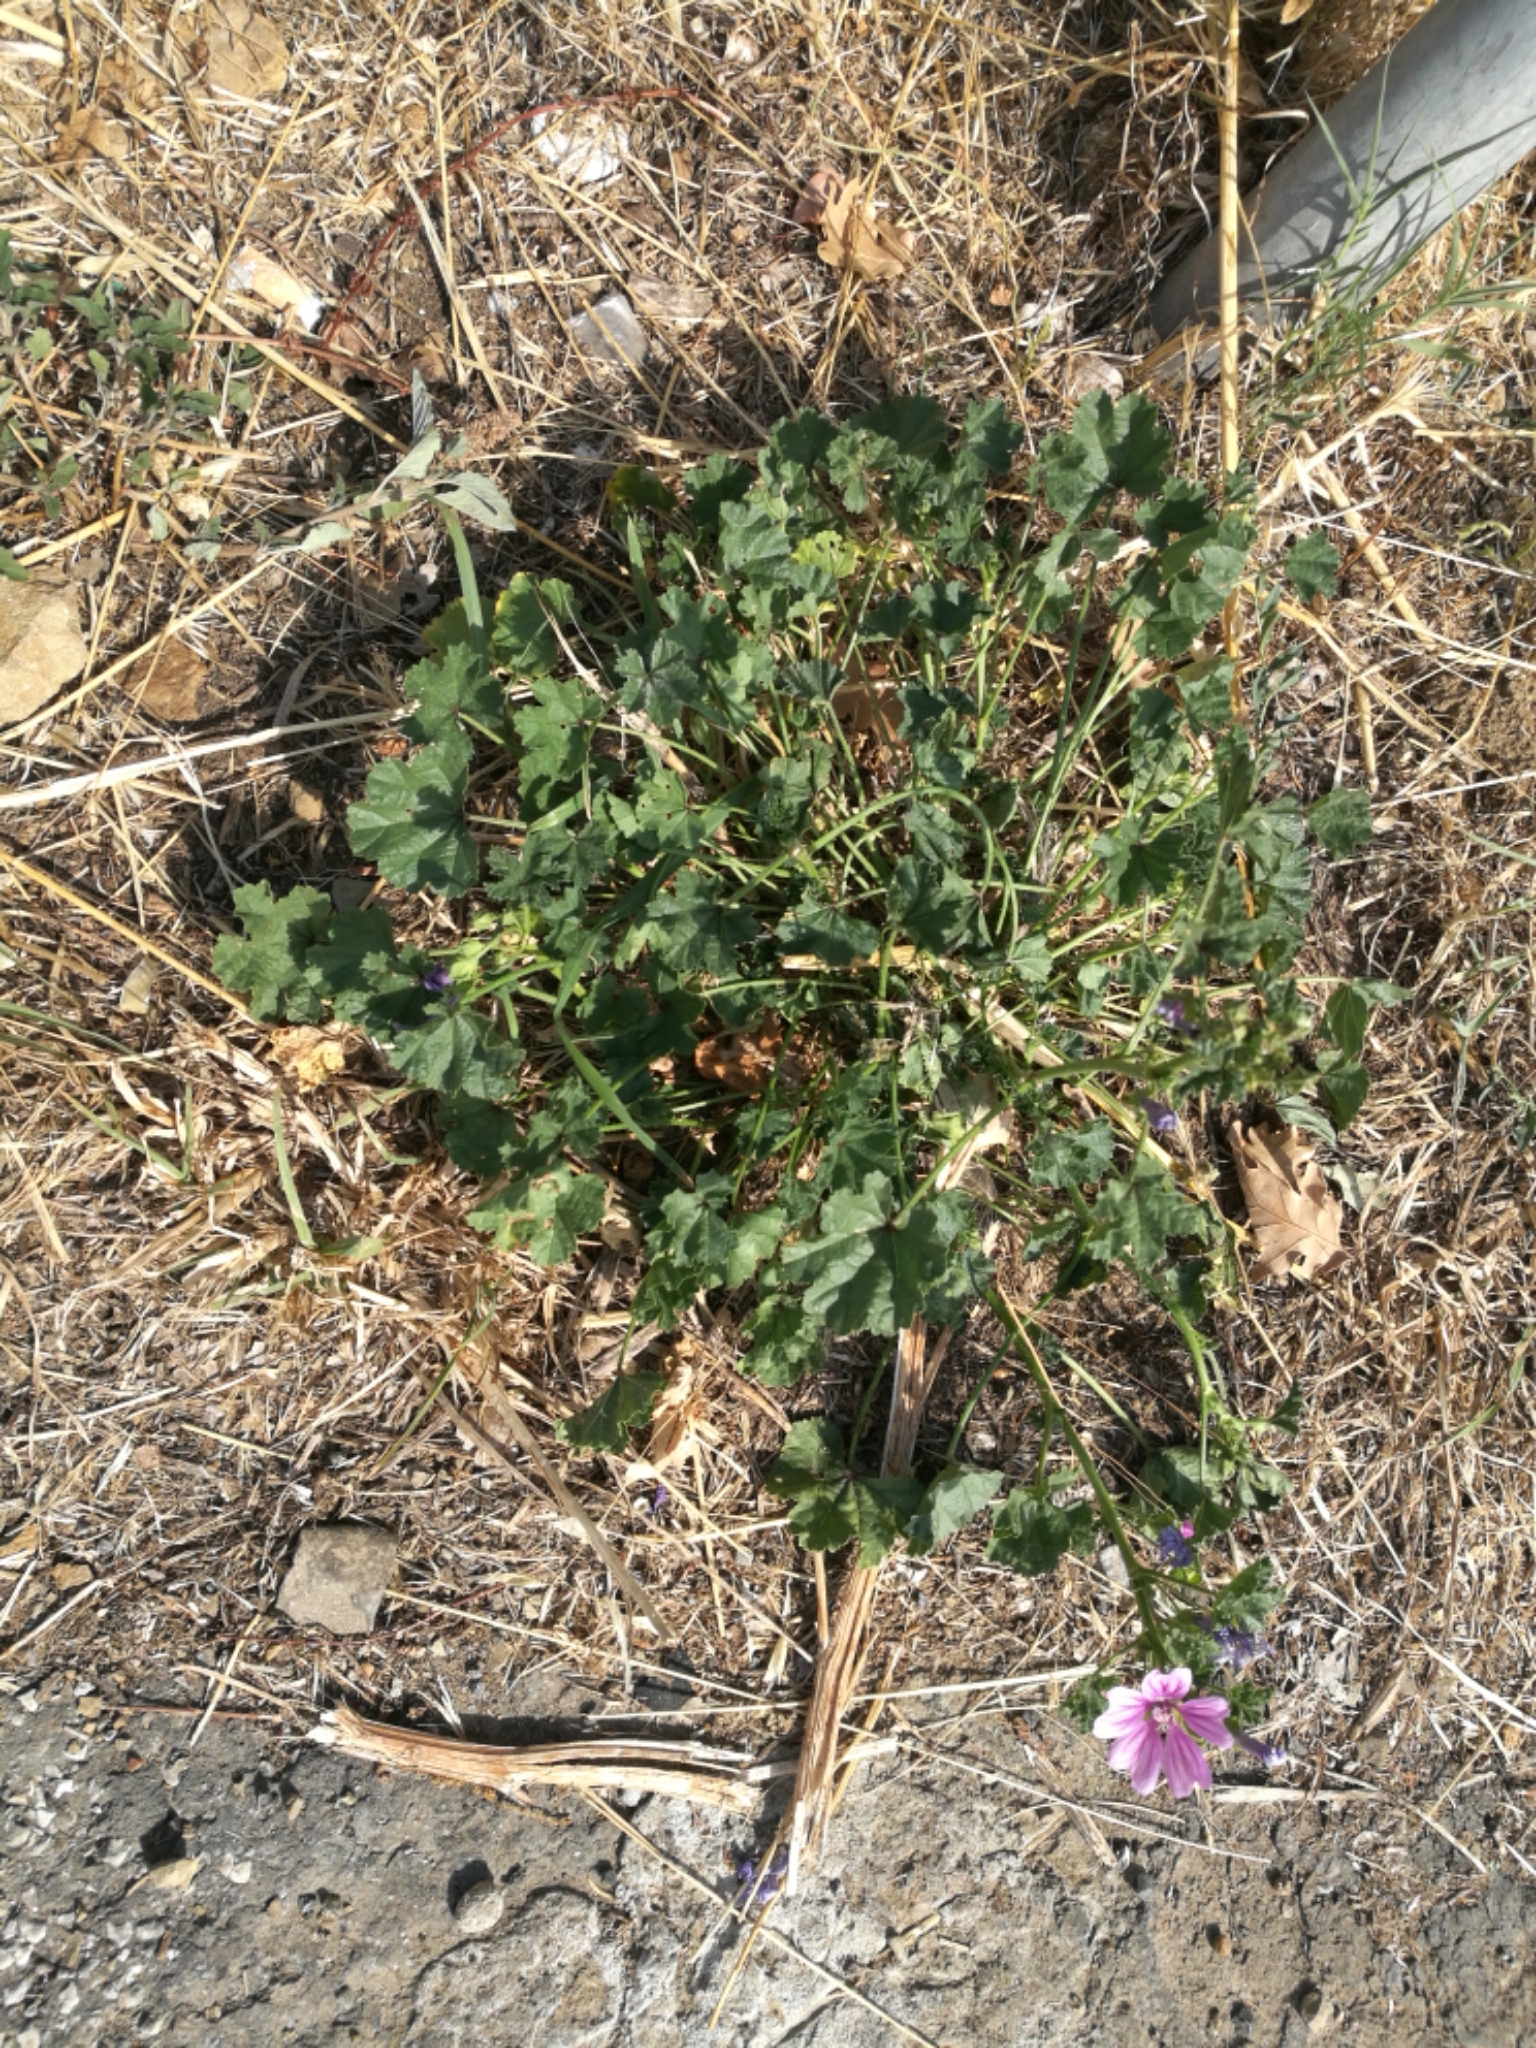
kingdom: Plantae
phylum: Tracheophyta
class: Magnoliopsida
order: Malvales
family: Malvaceae
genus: Malva
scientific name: Malva sylvestris
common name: Common mallow
